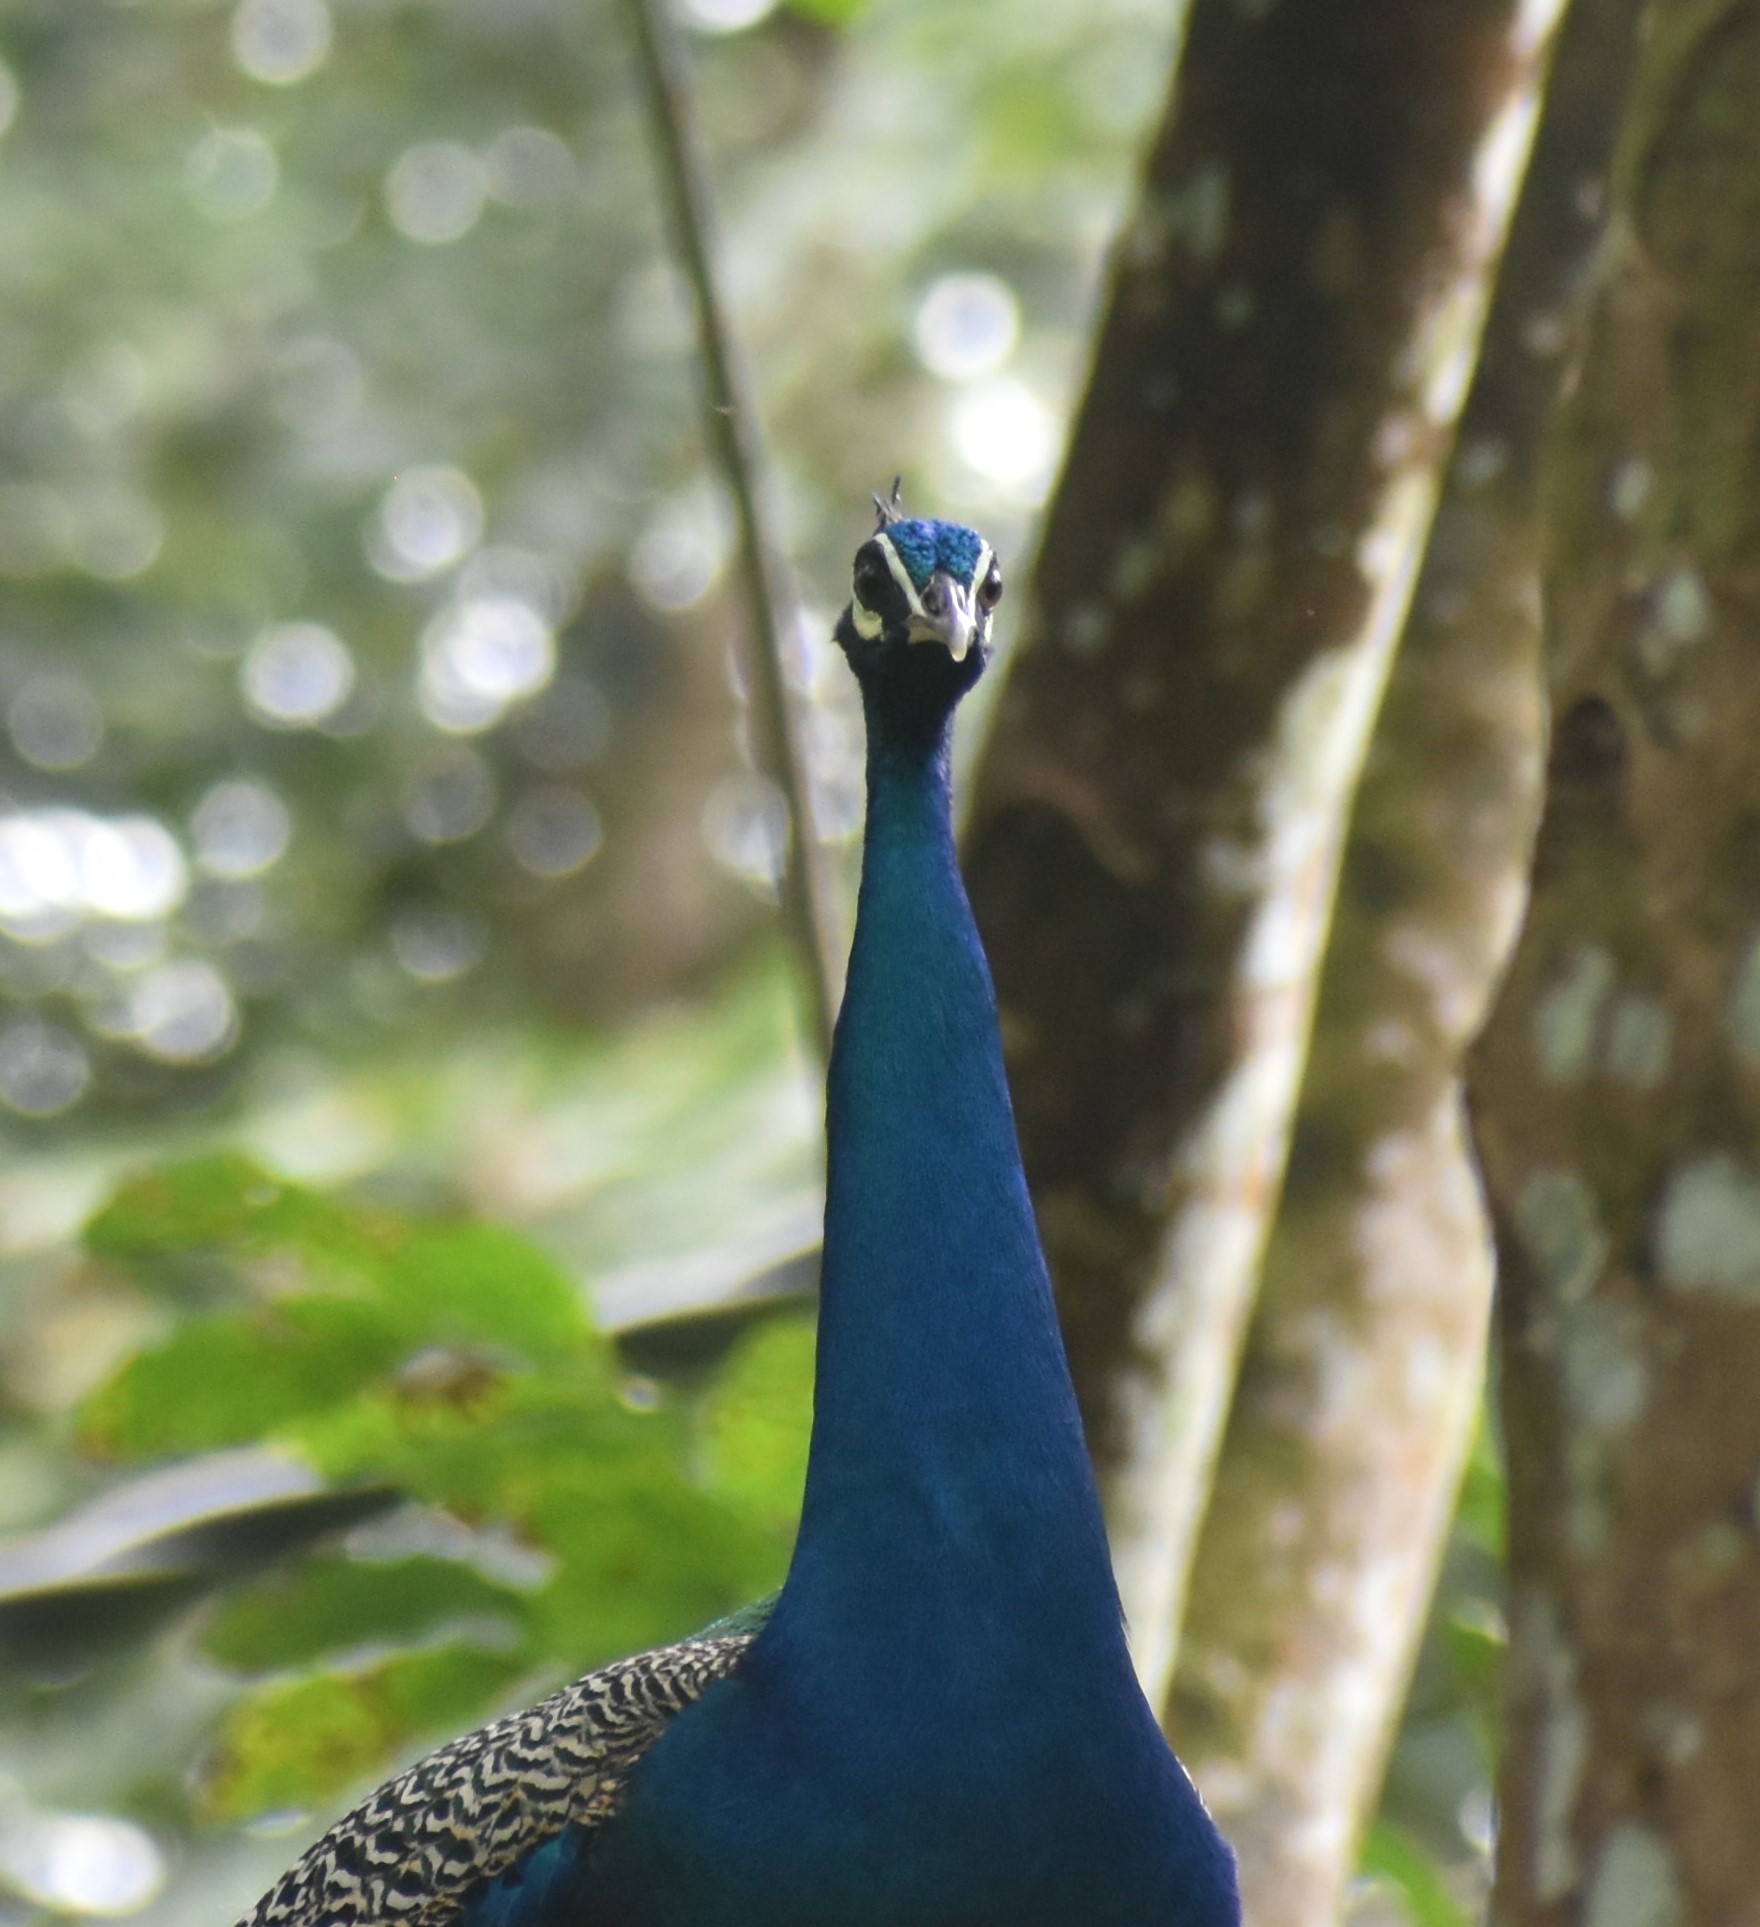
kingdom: Animalia
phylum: Chordata
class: Aves
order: Galliformes
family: Phasianidae
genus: Pavo
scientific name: Pavo cristatus
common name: Indian peafowl
